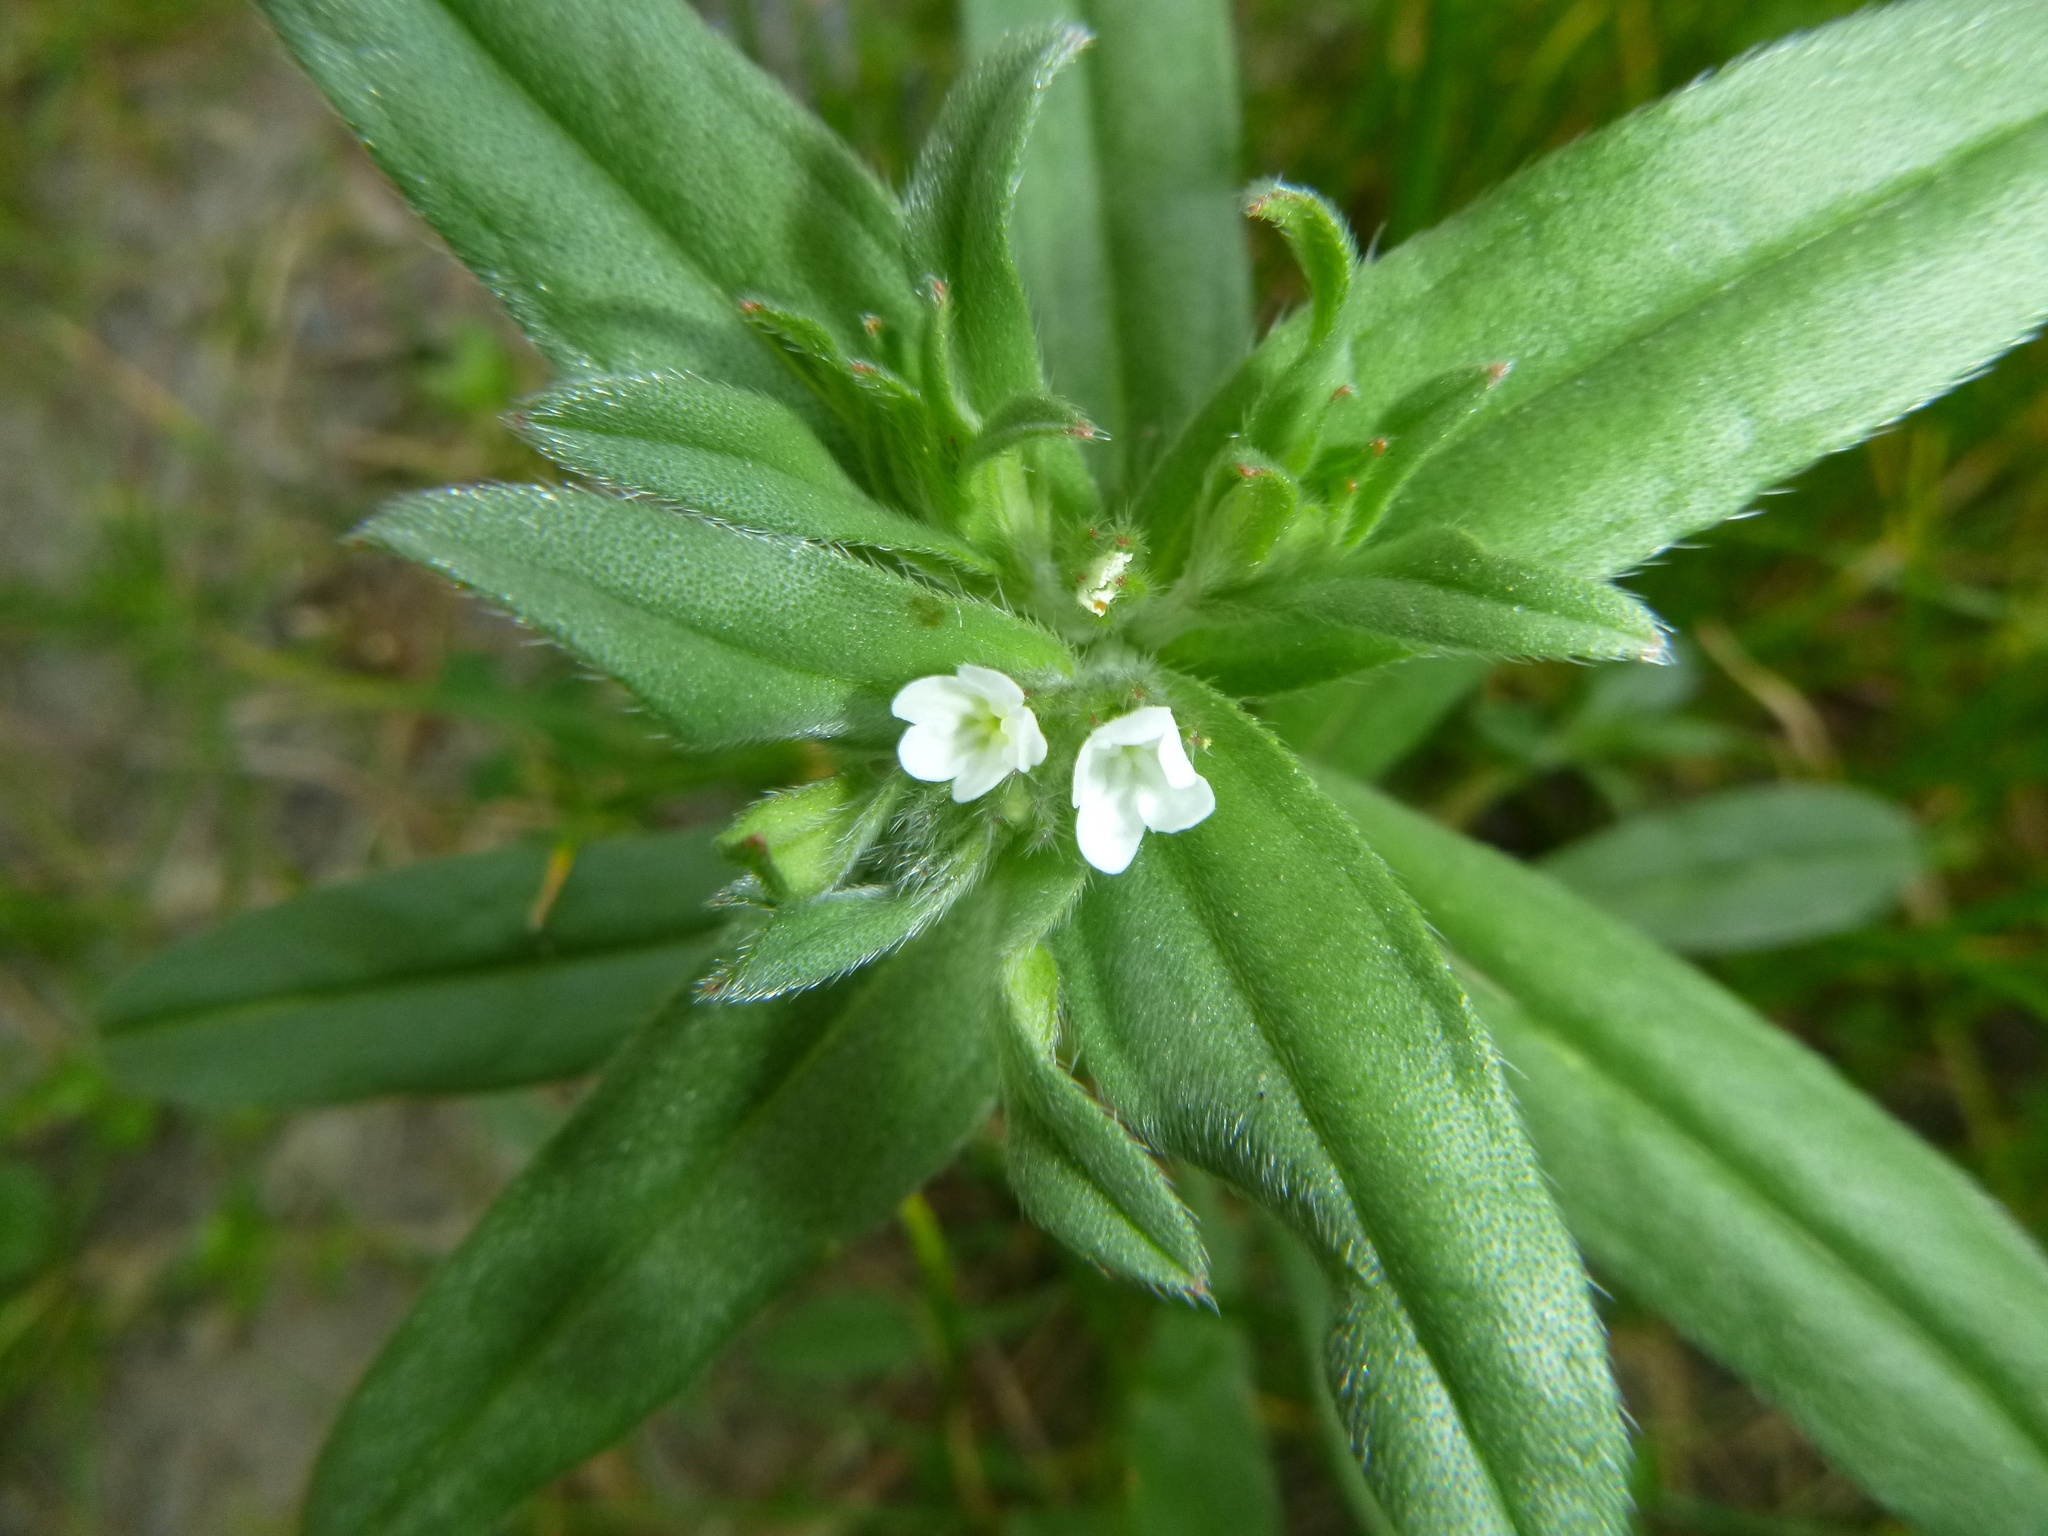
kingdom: Plantae
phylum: Tracheophyta
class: Magnoliopsida
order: Boraginales
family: Boraginaceae
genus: Buglossoides
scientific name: Buglossoides arvensis
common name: Corn gromwell
